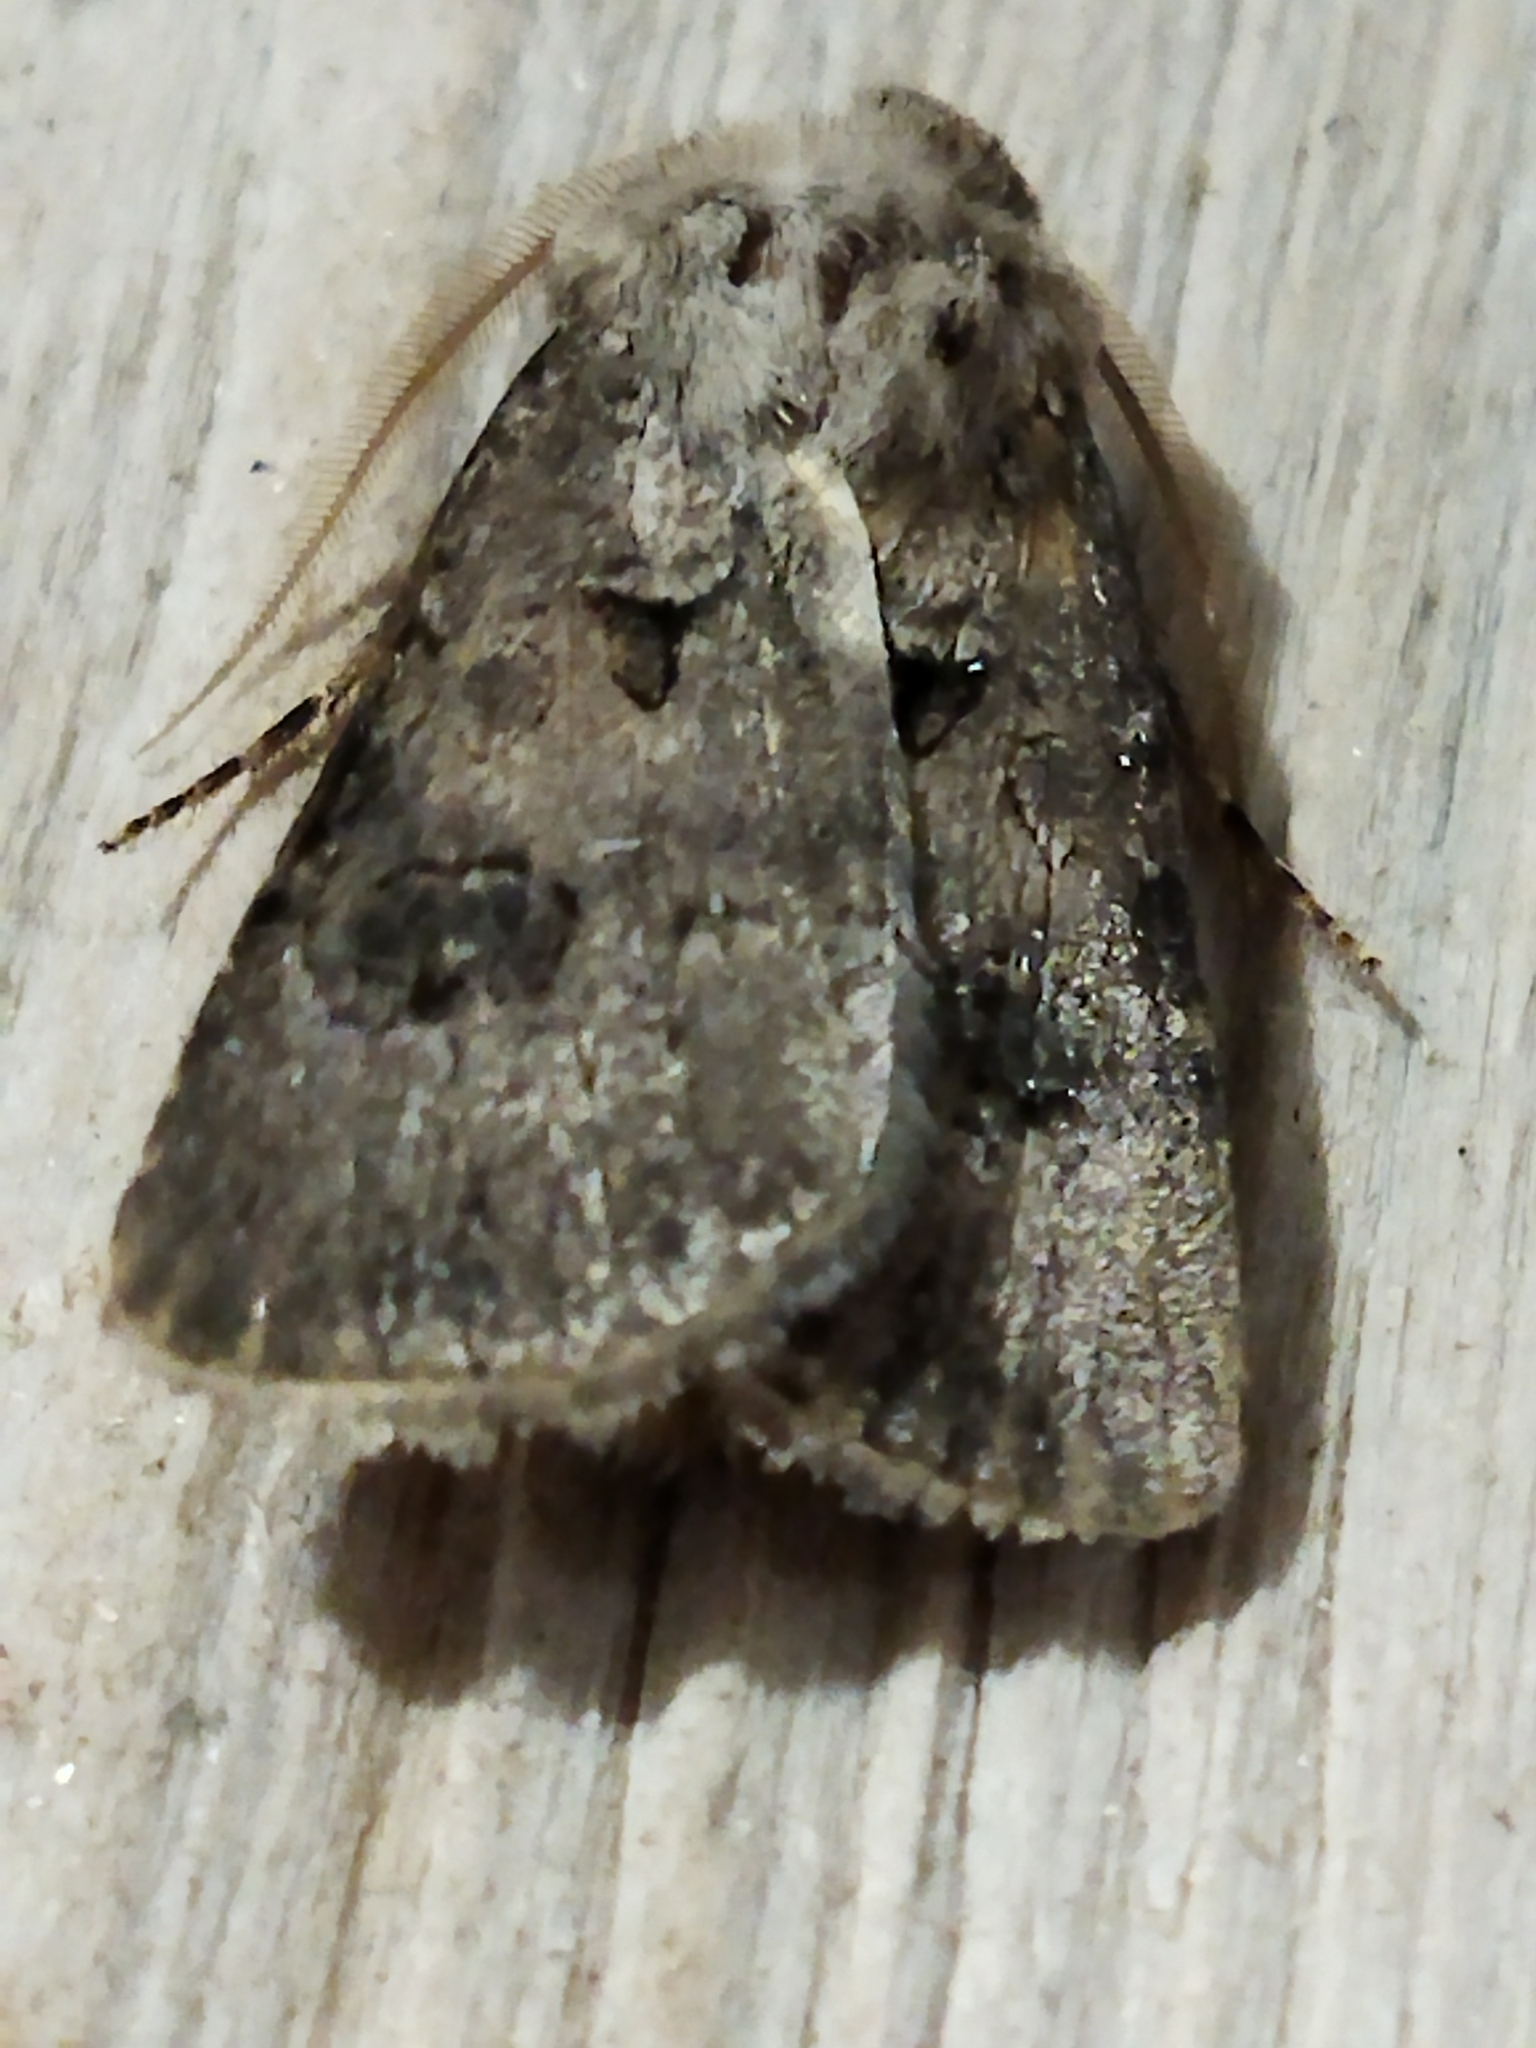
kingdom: Animalia
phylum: Arthropoda
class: Insecta
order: Lepidoptera
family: Noctuidae
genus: Agrotis
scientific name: Agrotis bigramma
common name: Great dart
